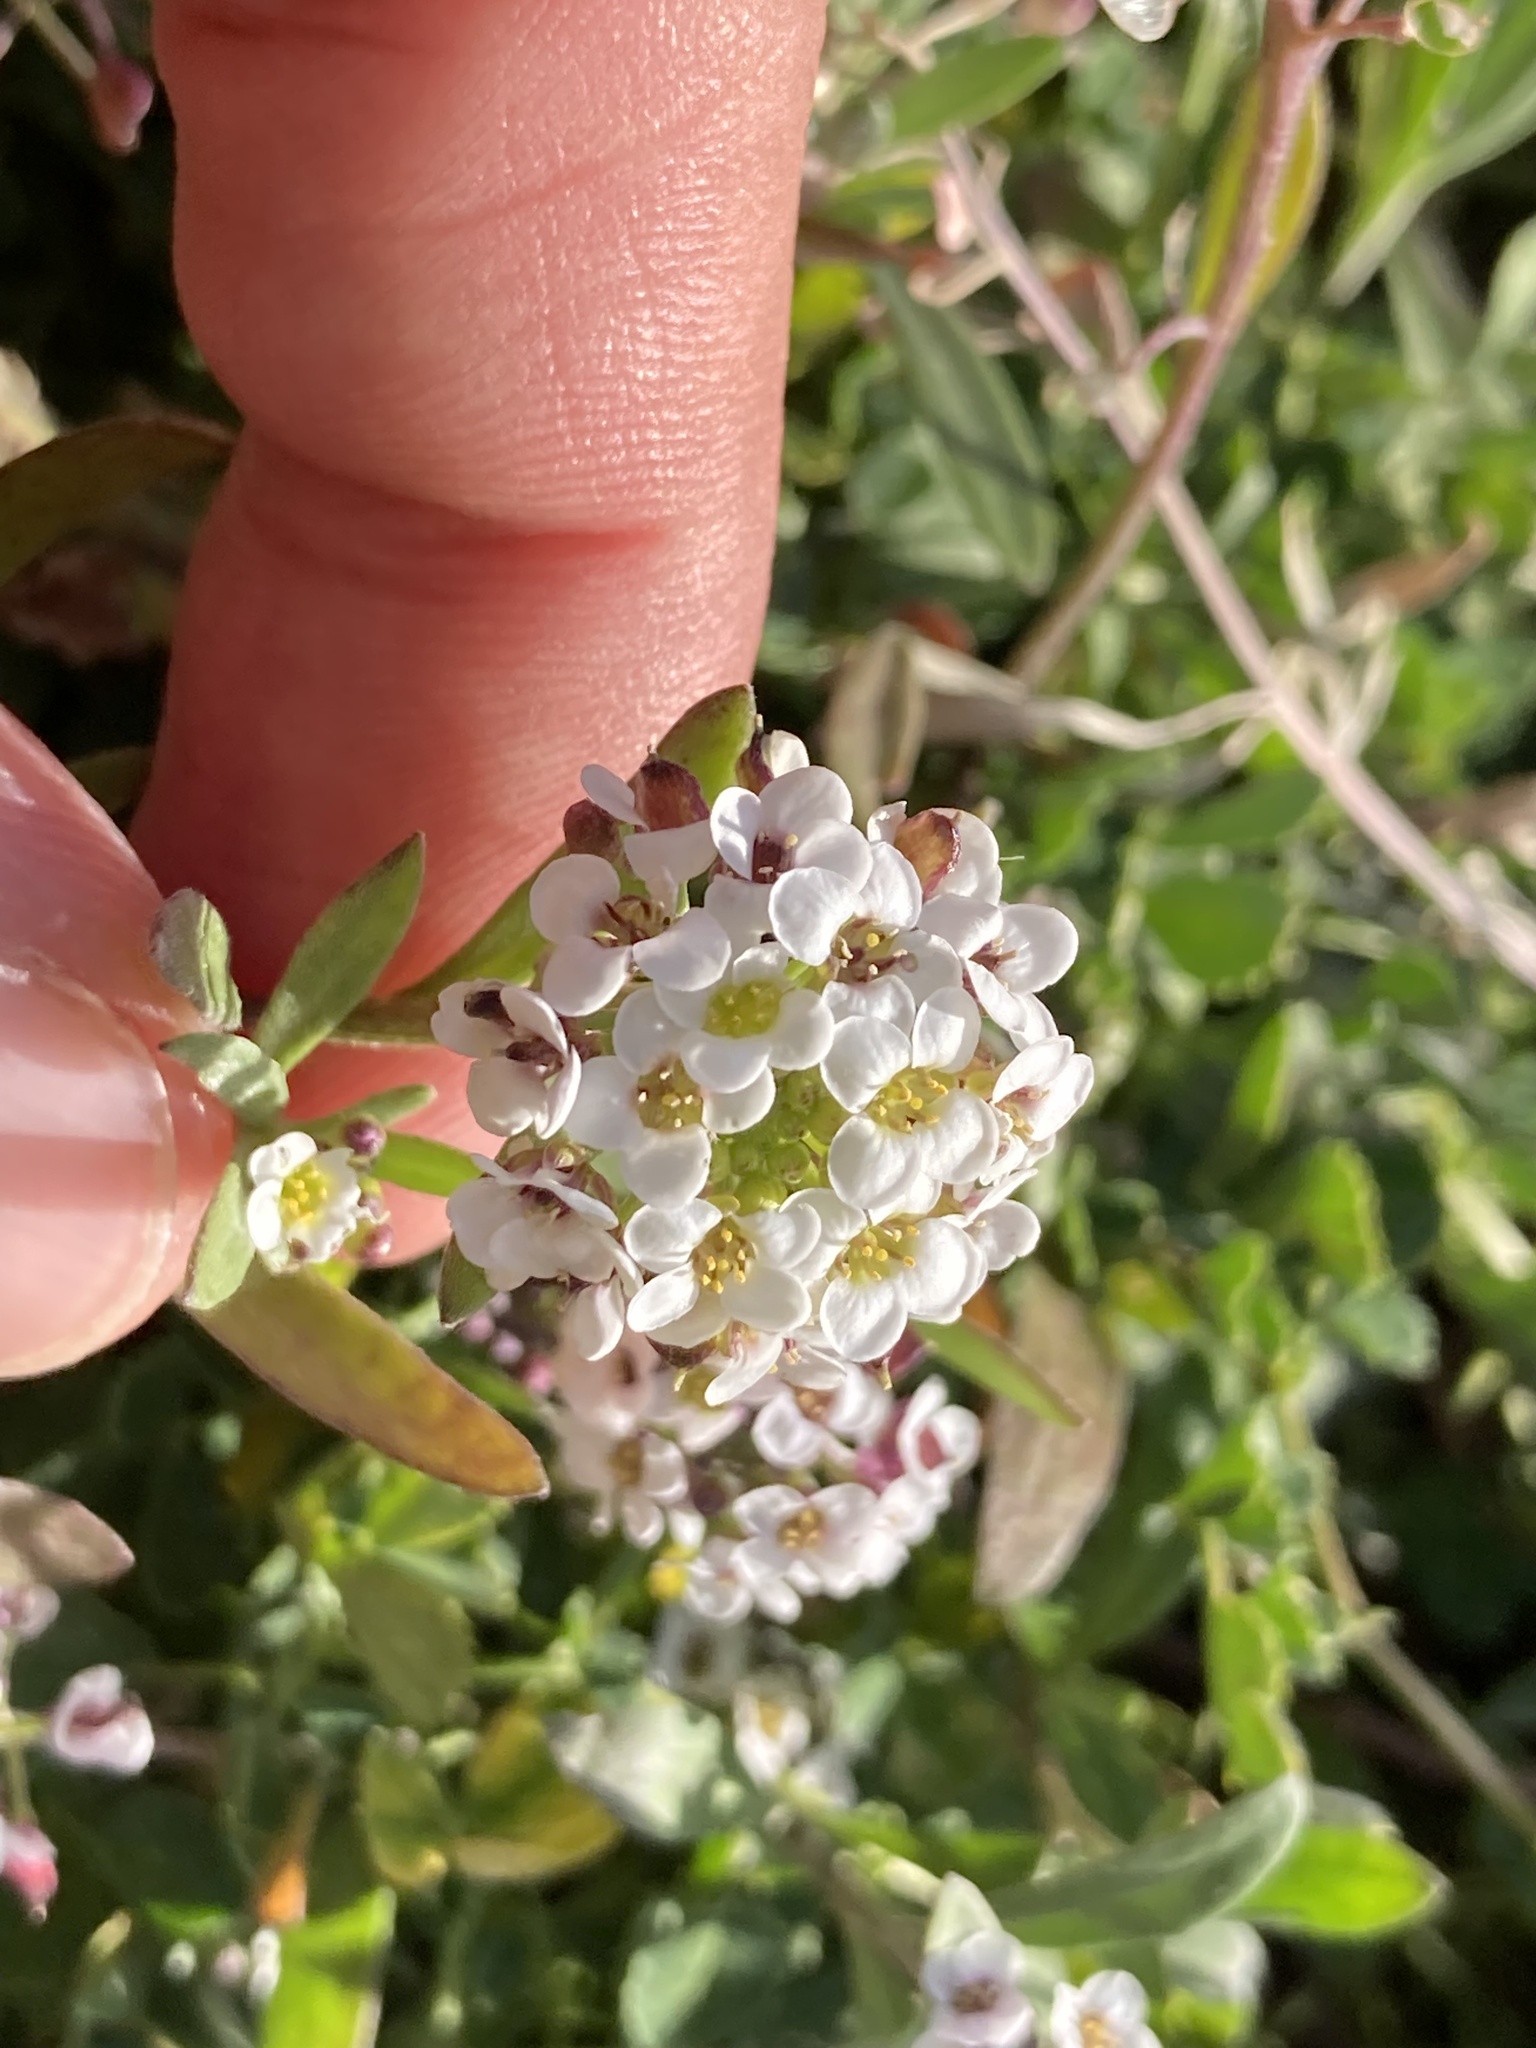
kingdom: Plantae
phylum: Tracheophyta
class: Magnoliopsida
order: Brassicales
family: Brassicaceae
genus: Lobularia
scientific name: Lobularia maritima
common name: Sweet alison
